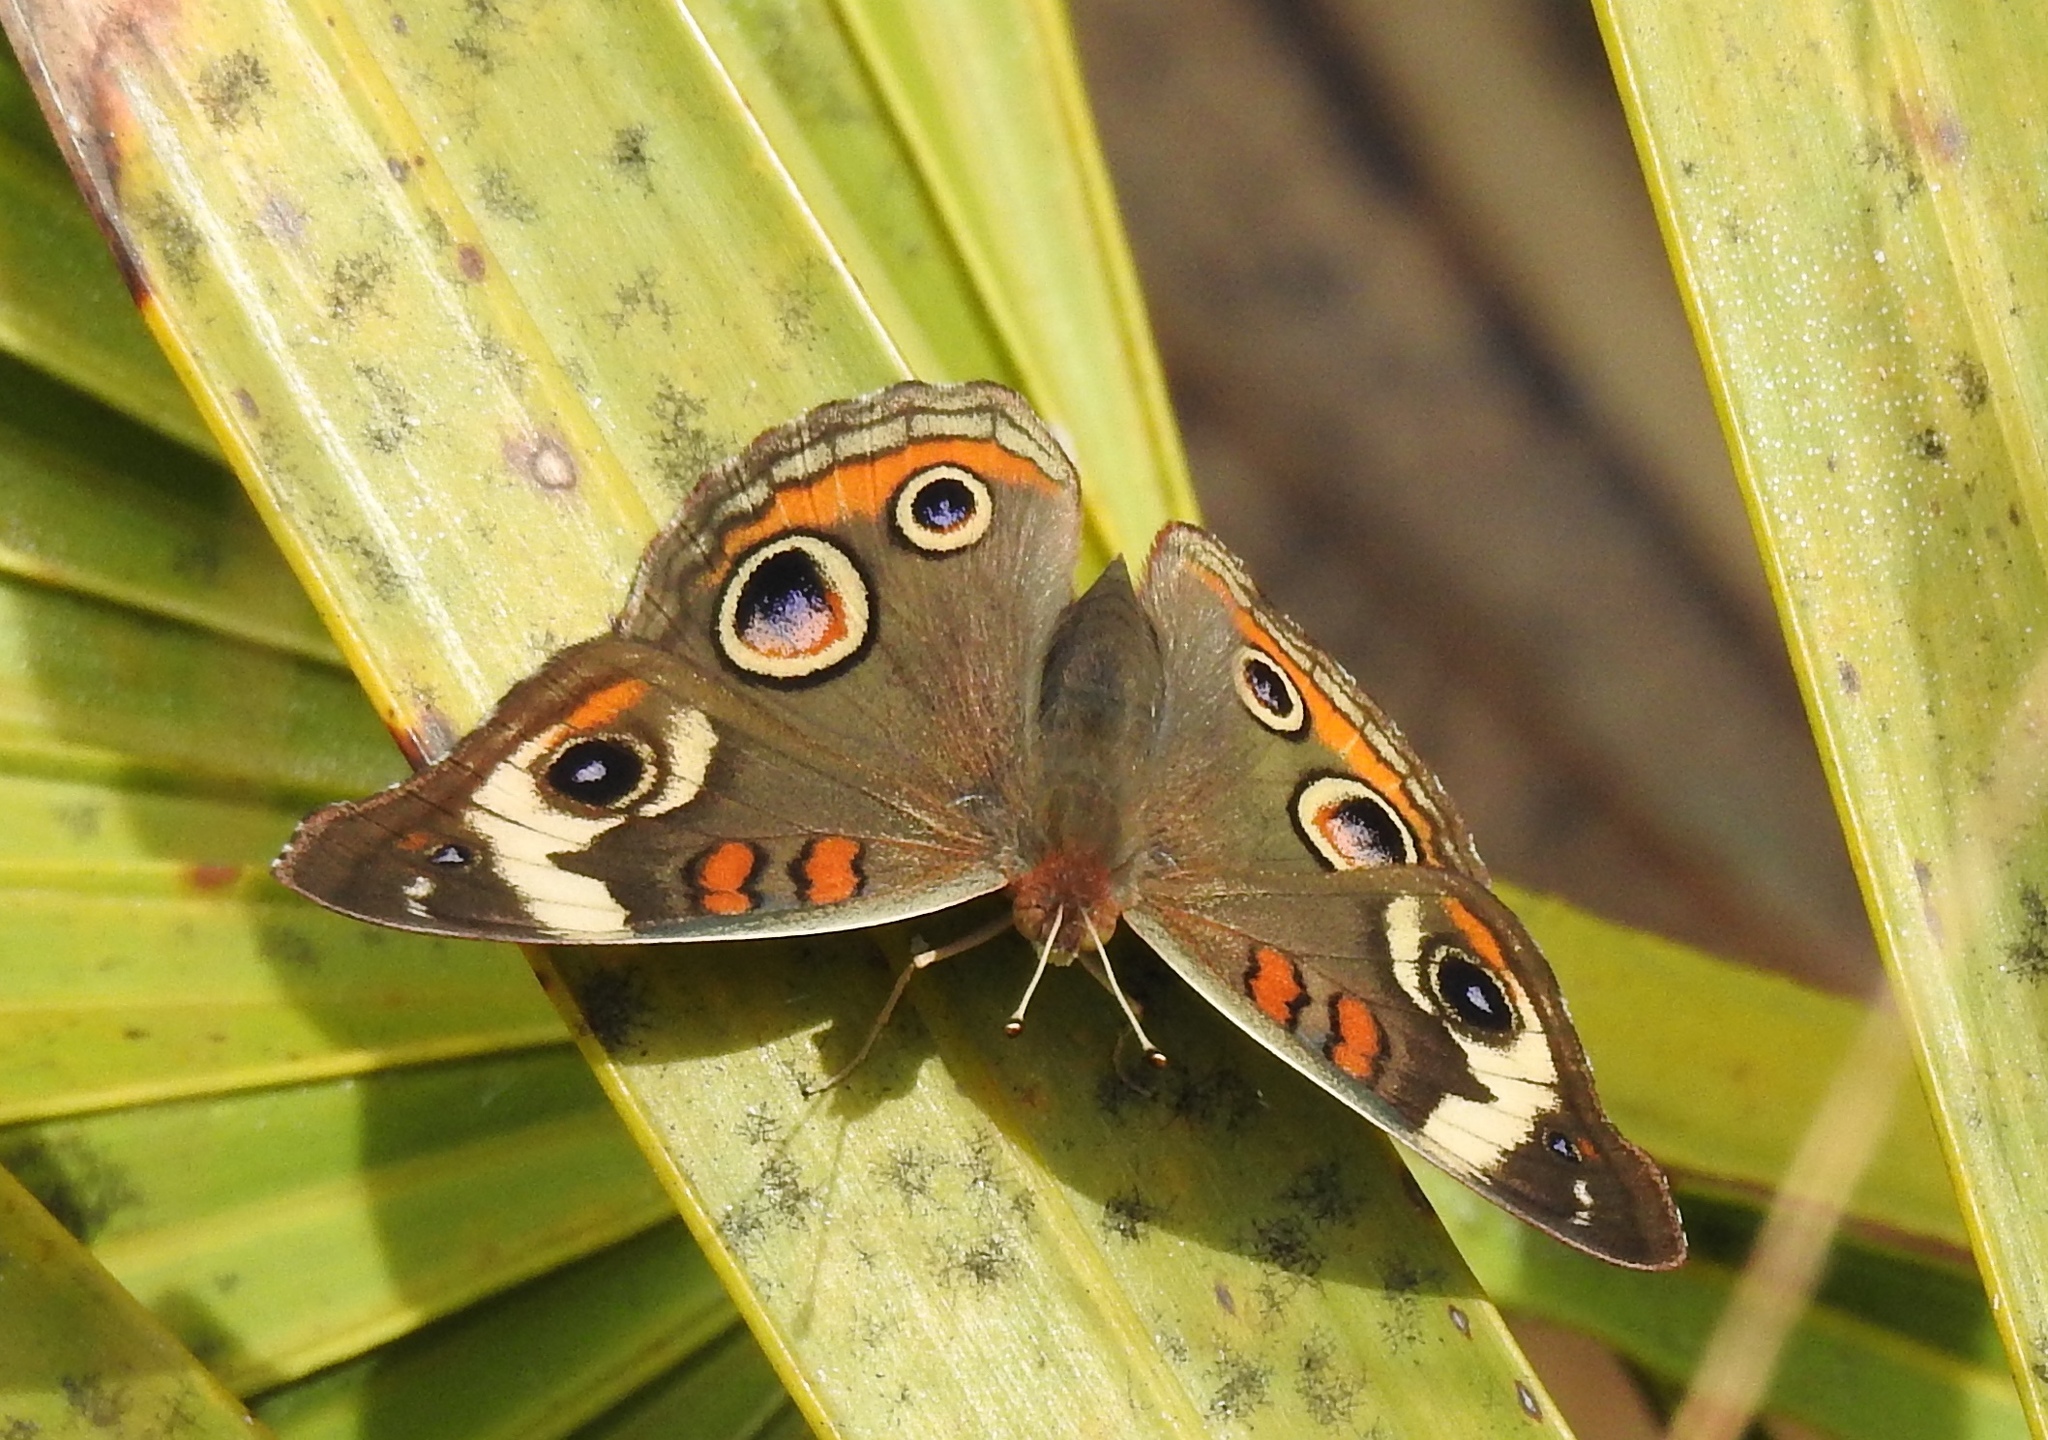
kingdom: Animalia
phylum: Arthropoda
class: Insecta
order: Lepidoptera
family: Nymphalidae
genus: Junonia
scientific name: Junonia coenia
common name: Common buckeye
